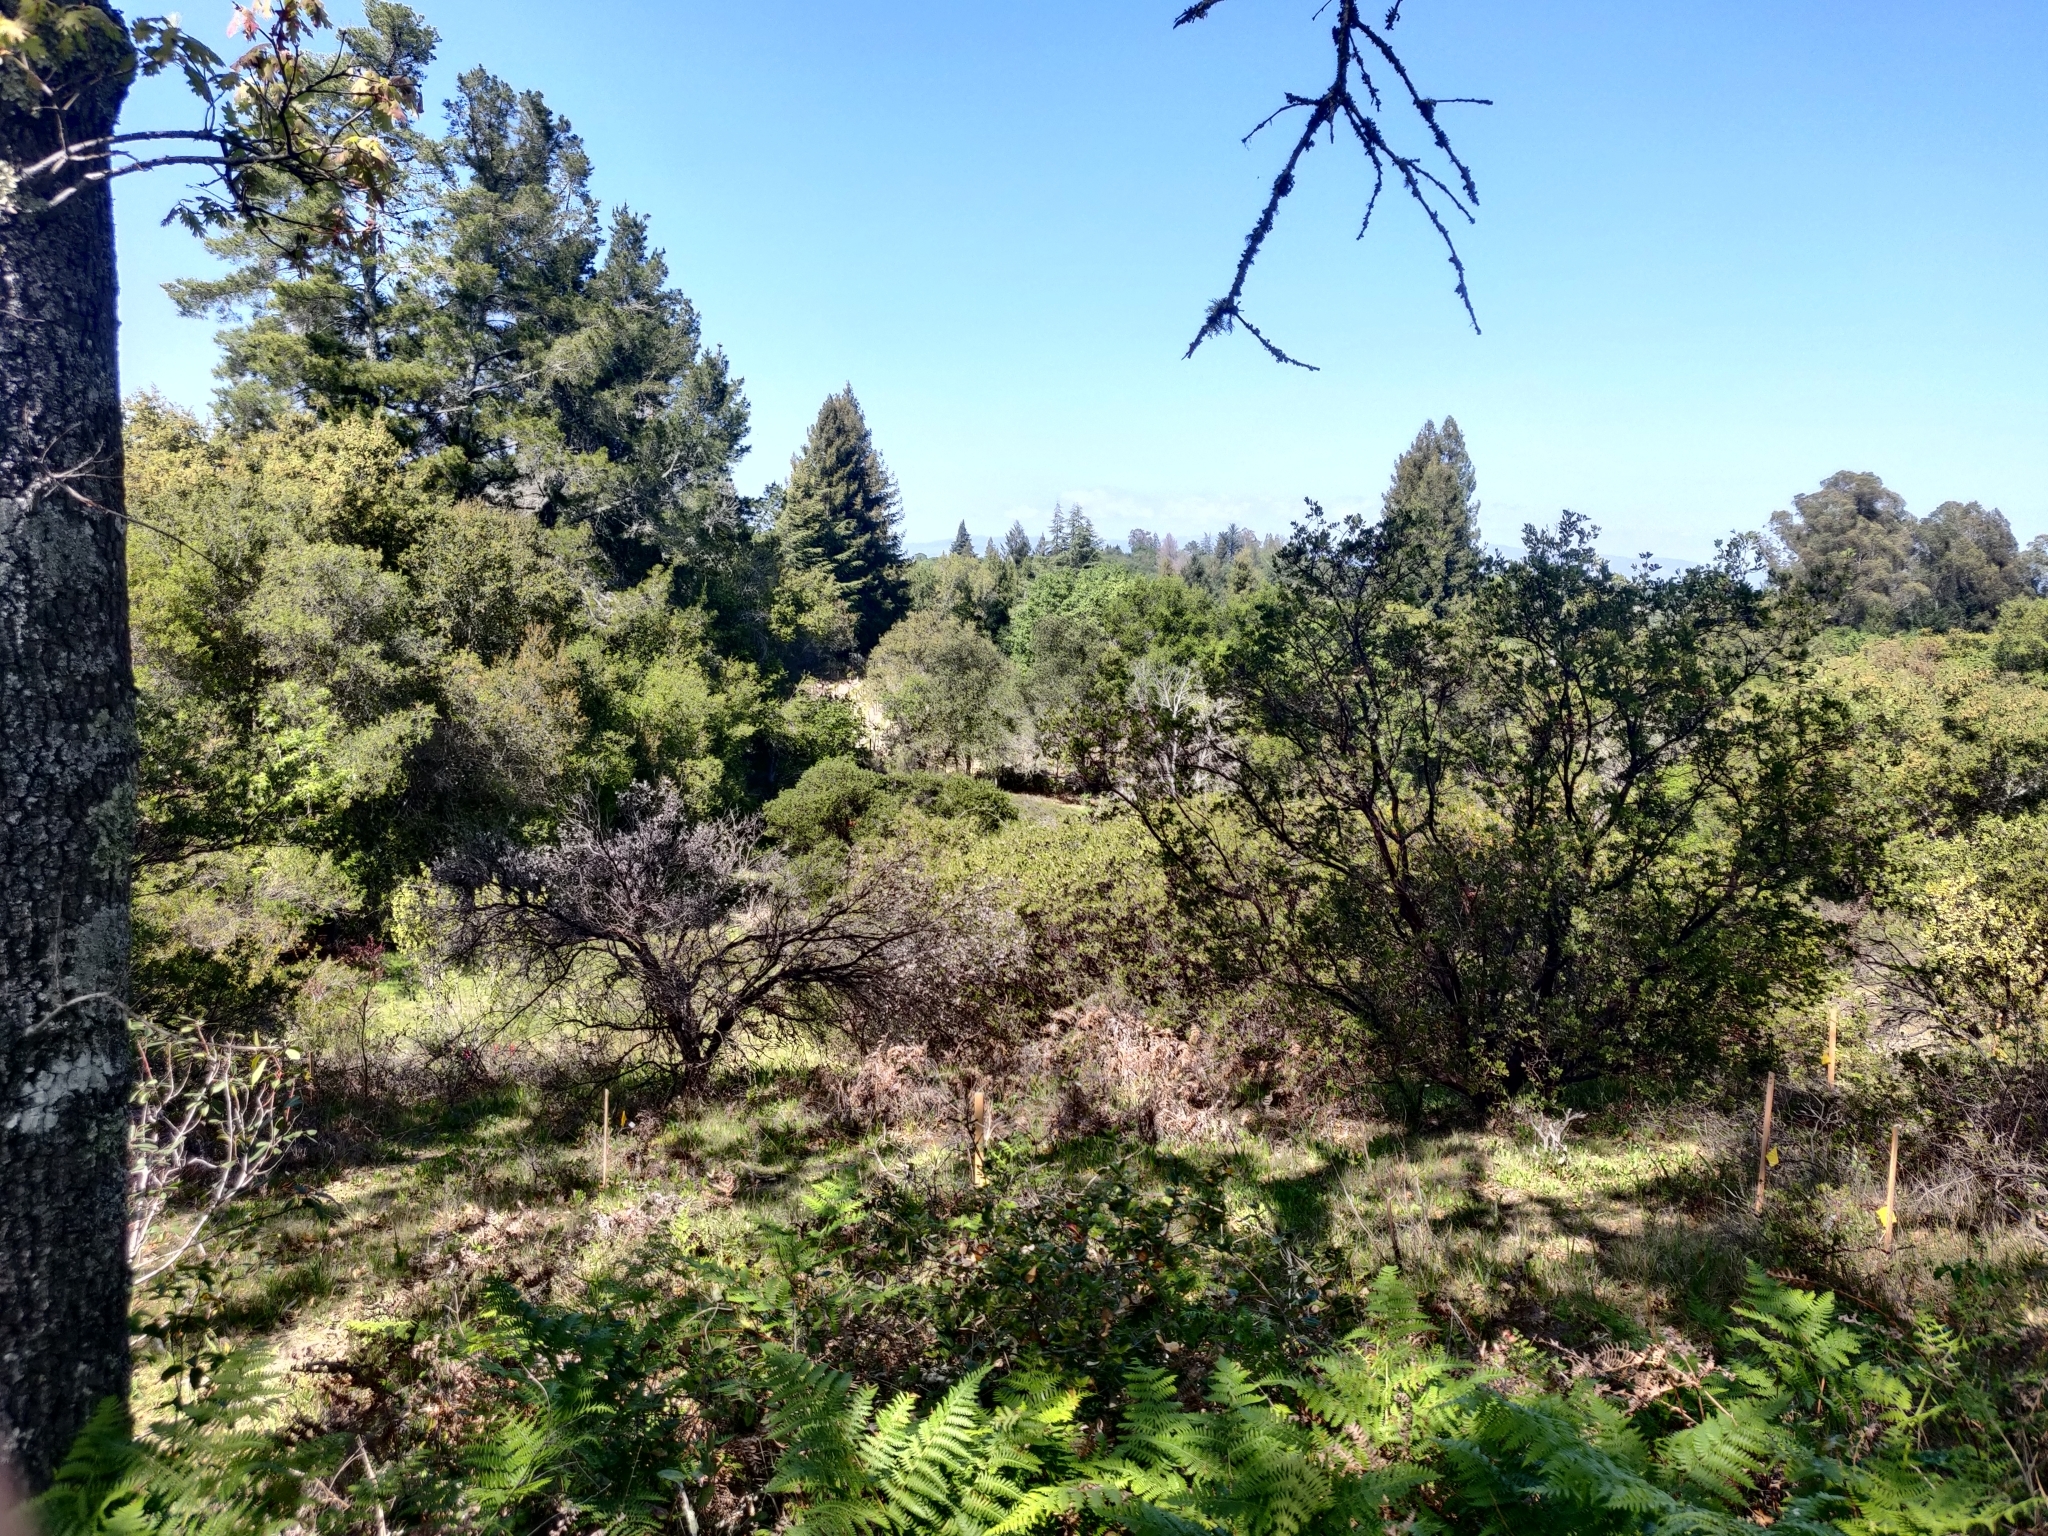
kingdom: Plantae
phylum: Tracheophyta
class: Magnoliopsida
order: Ericales
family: Ericaceae
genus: Arctostaphylos
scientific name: Arctostaphylos densiflora
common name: Vine hill manzanita
